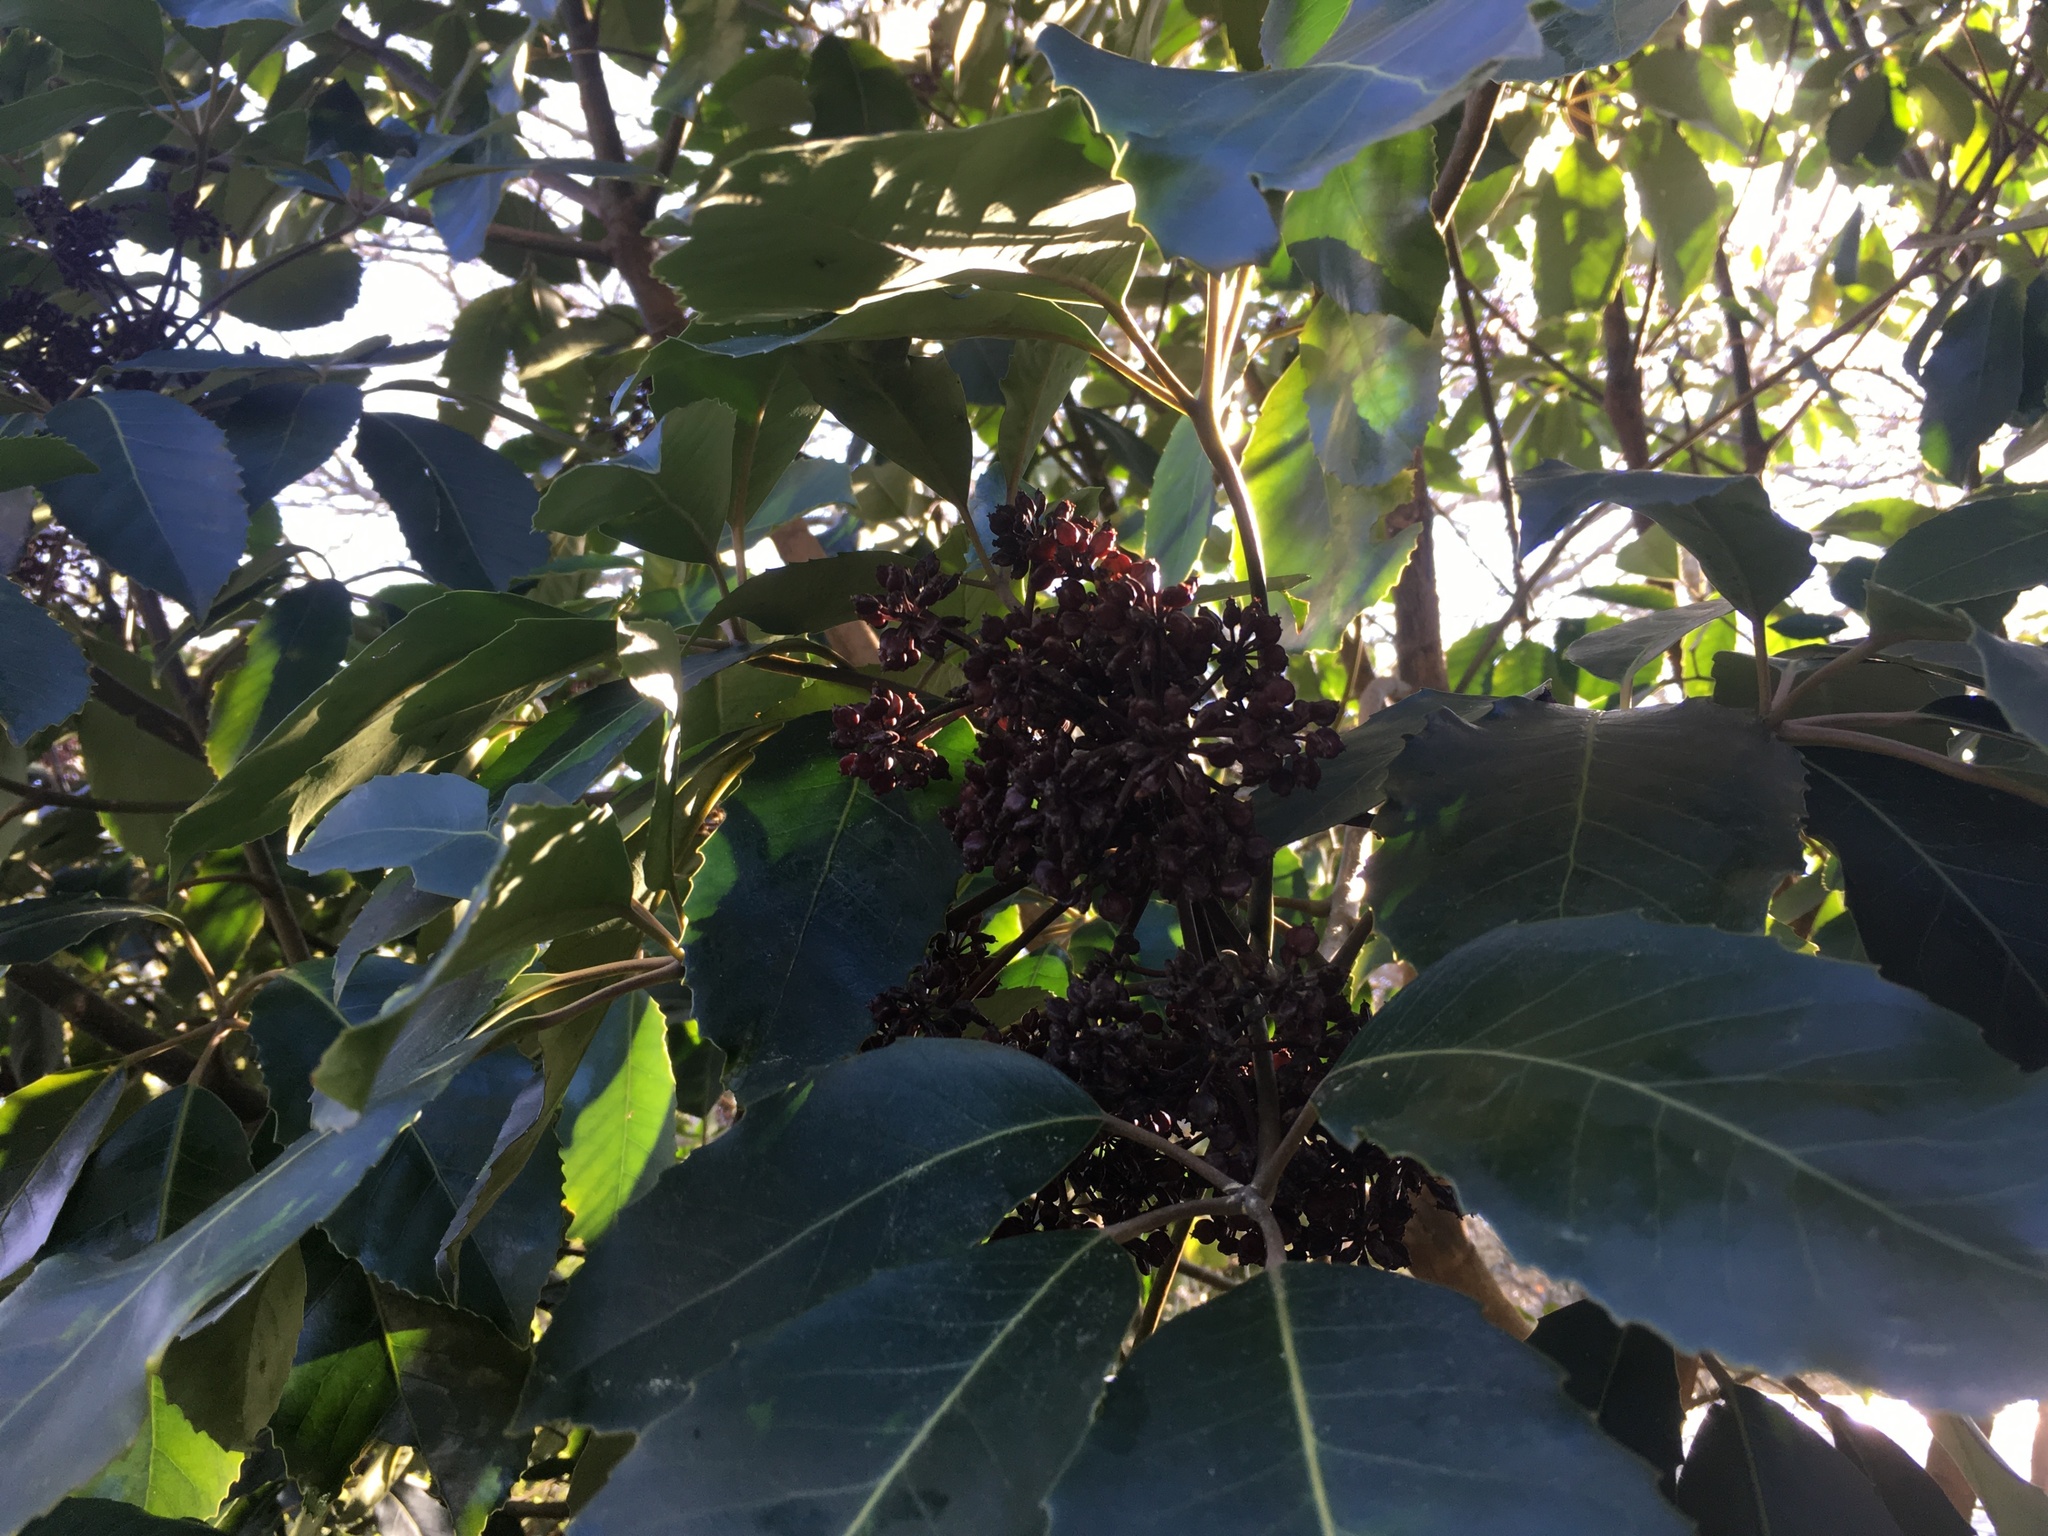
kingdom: Plantae
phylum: Tracheophyta
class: Magnoliopsida
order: Apiales
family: Araliaceae
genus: Neopanax
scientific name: Neopanax arboreus
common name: Five-fingers
